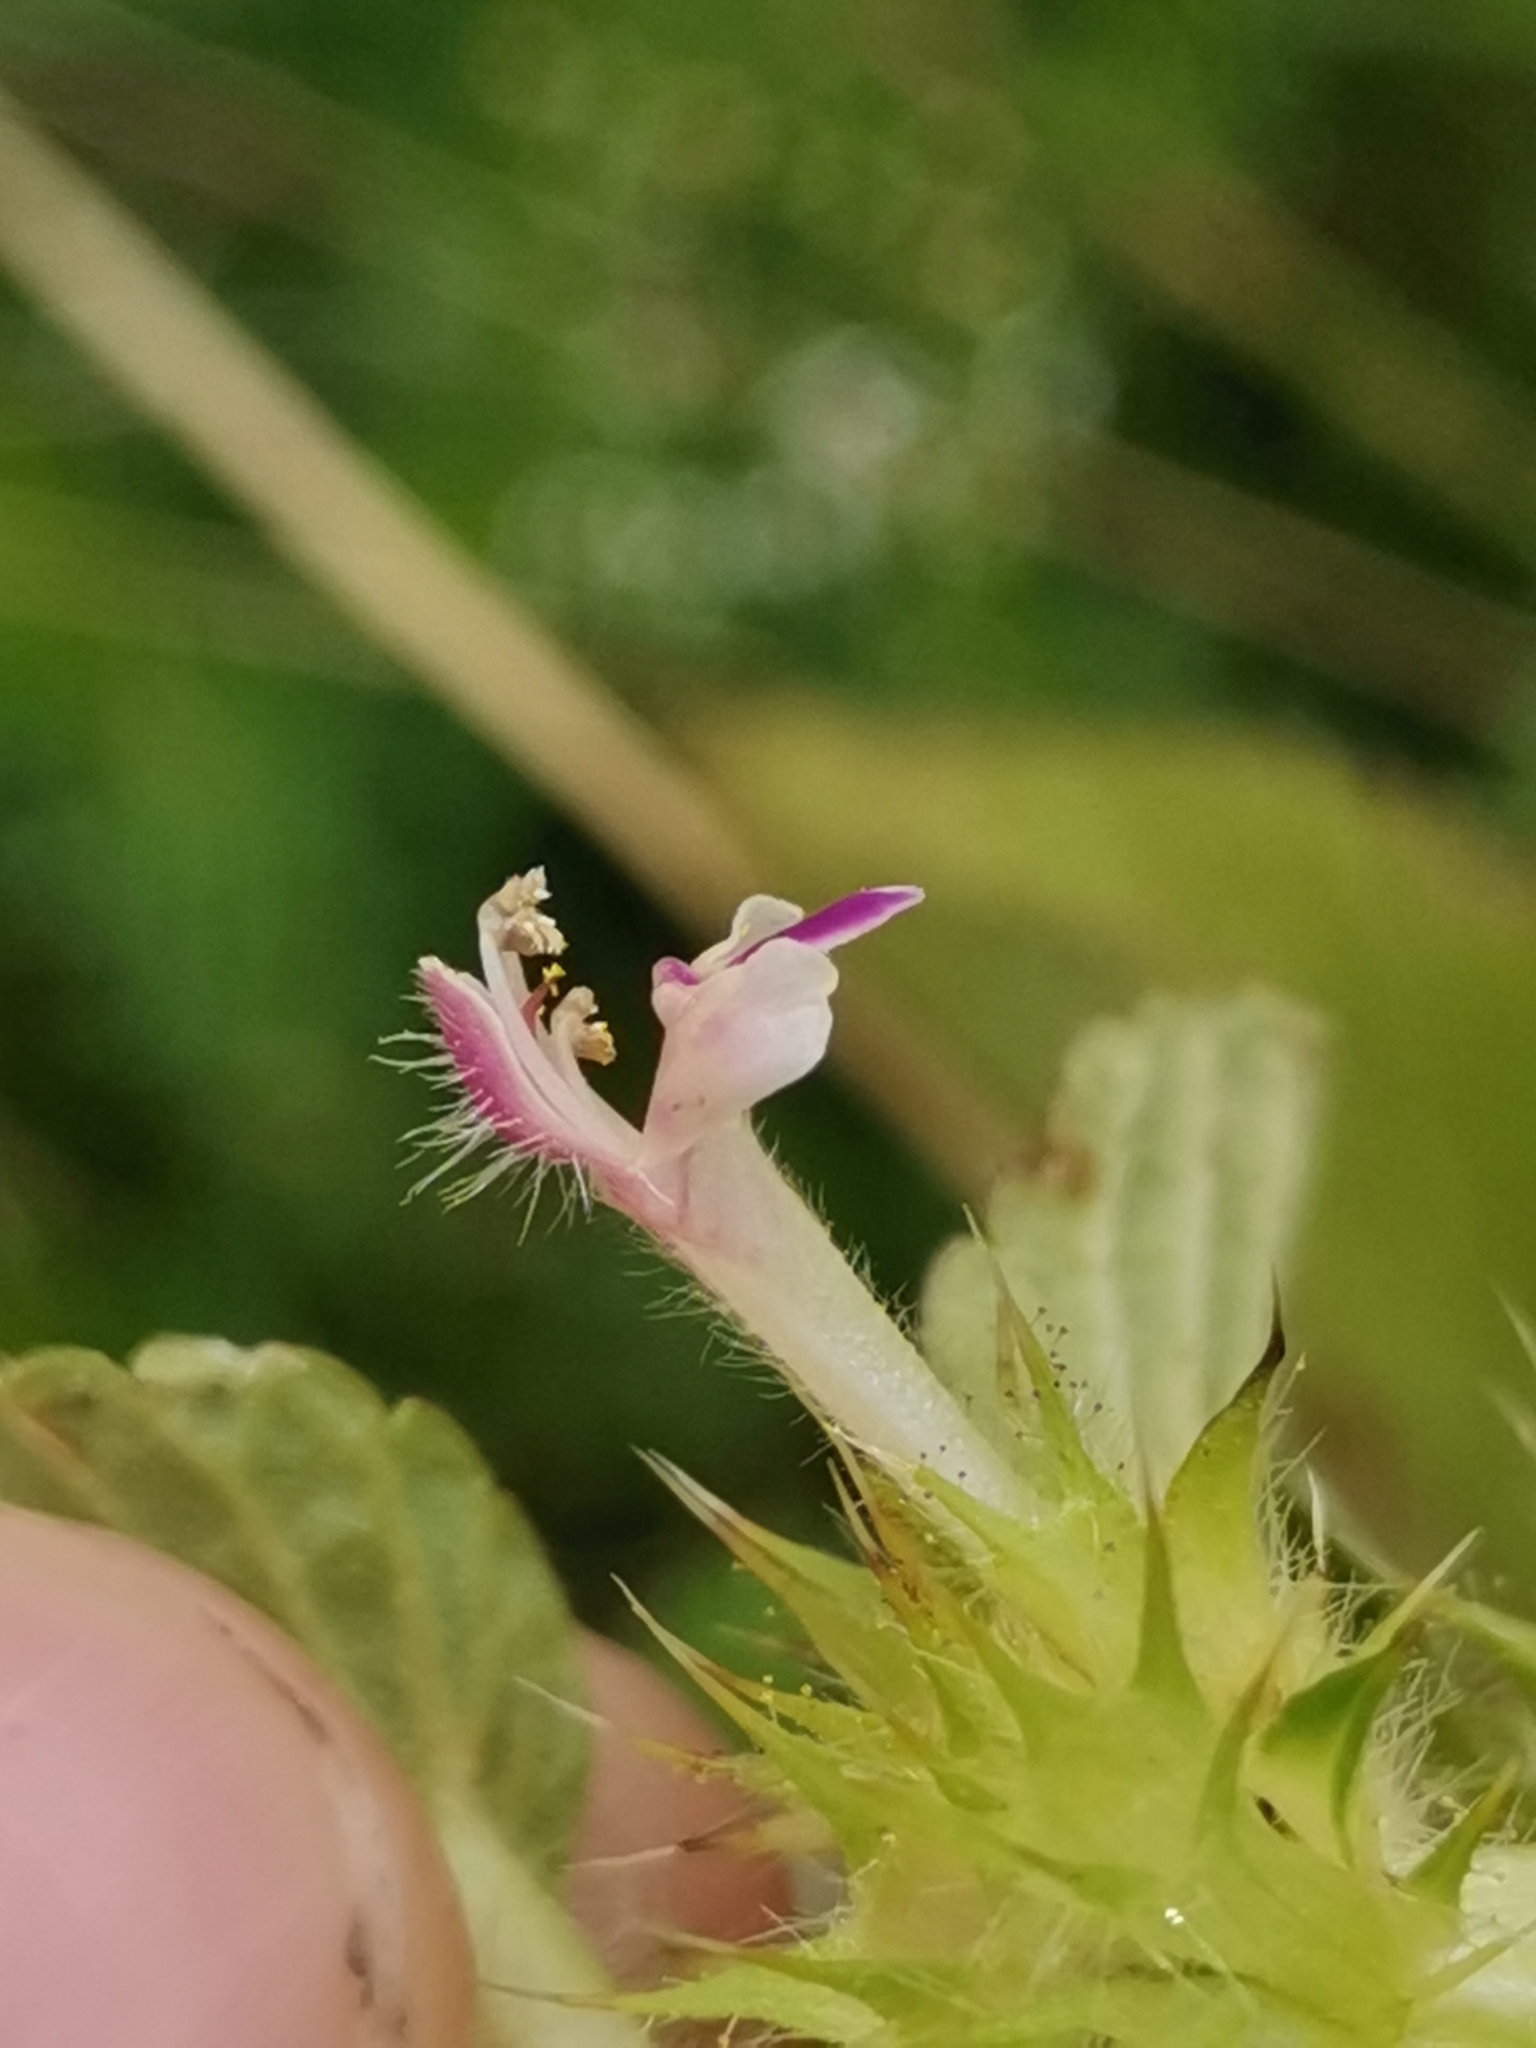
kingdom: Plantae
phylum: Tracheophyta
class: Magnoliopsida
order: Lamiales
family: Lamiaceae
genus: Galeopsis
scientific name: Galeopsis bifida
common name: Bifid hemp-nettle
